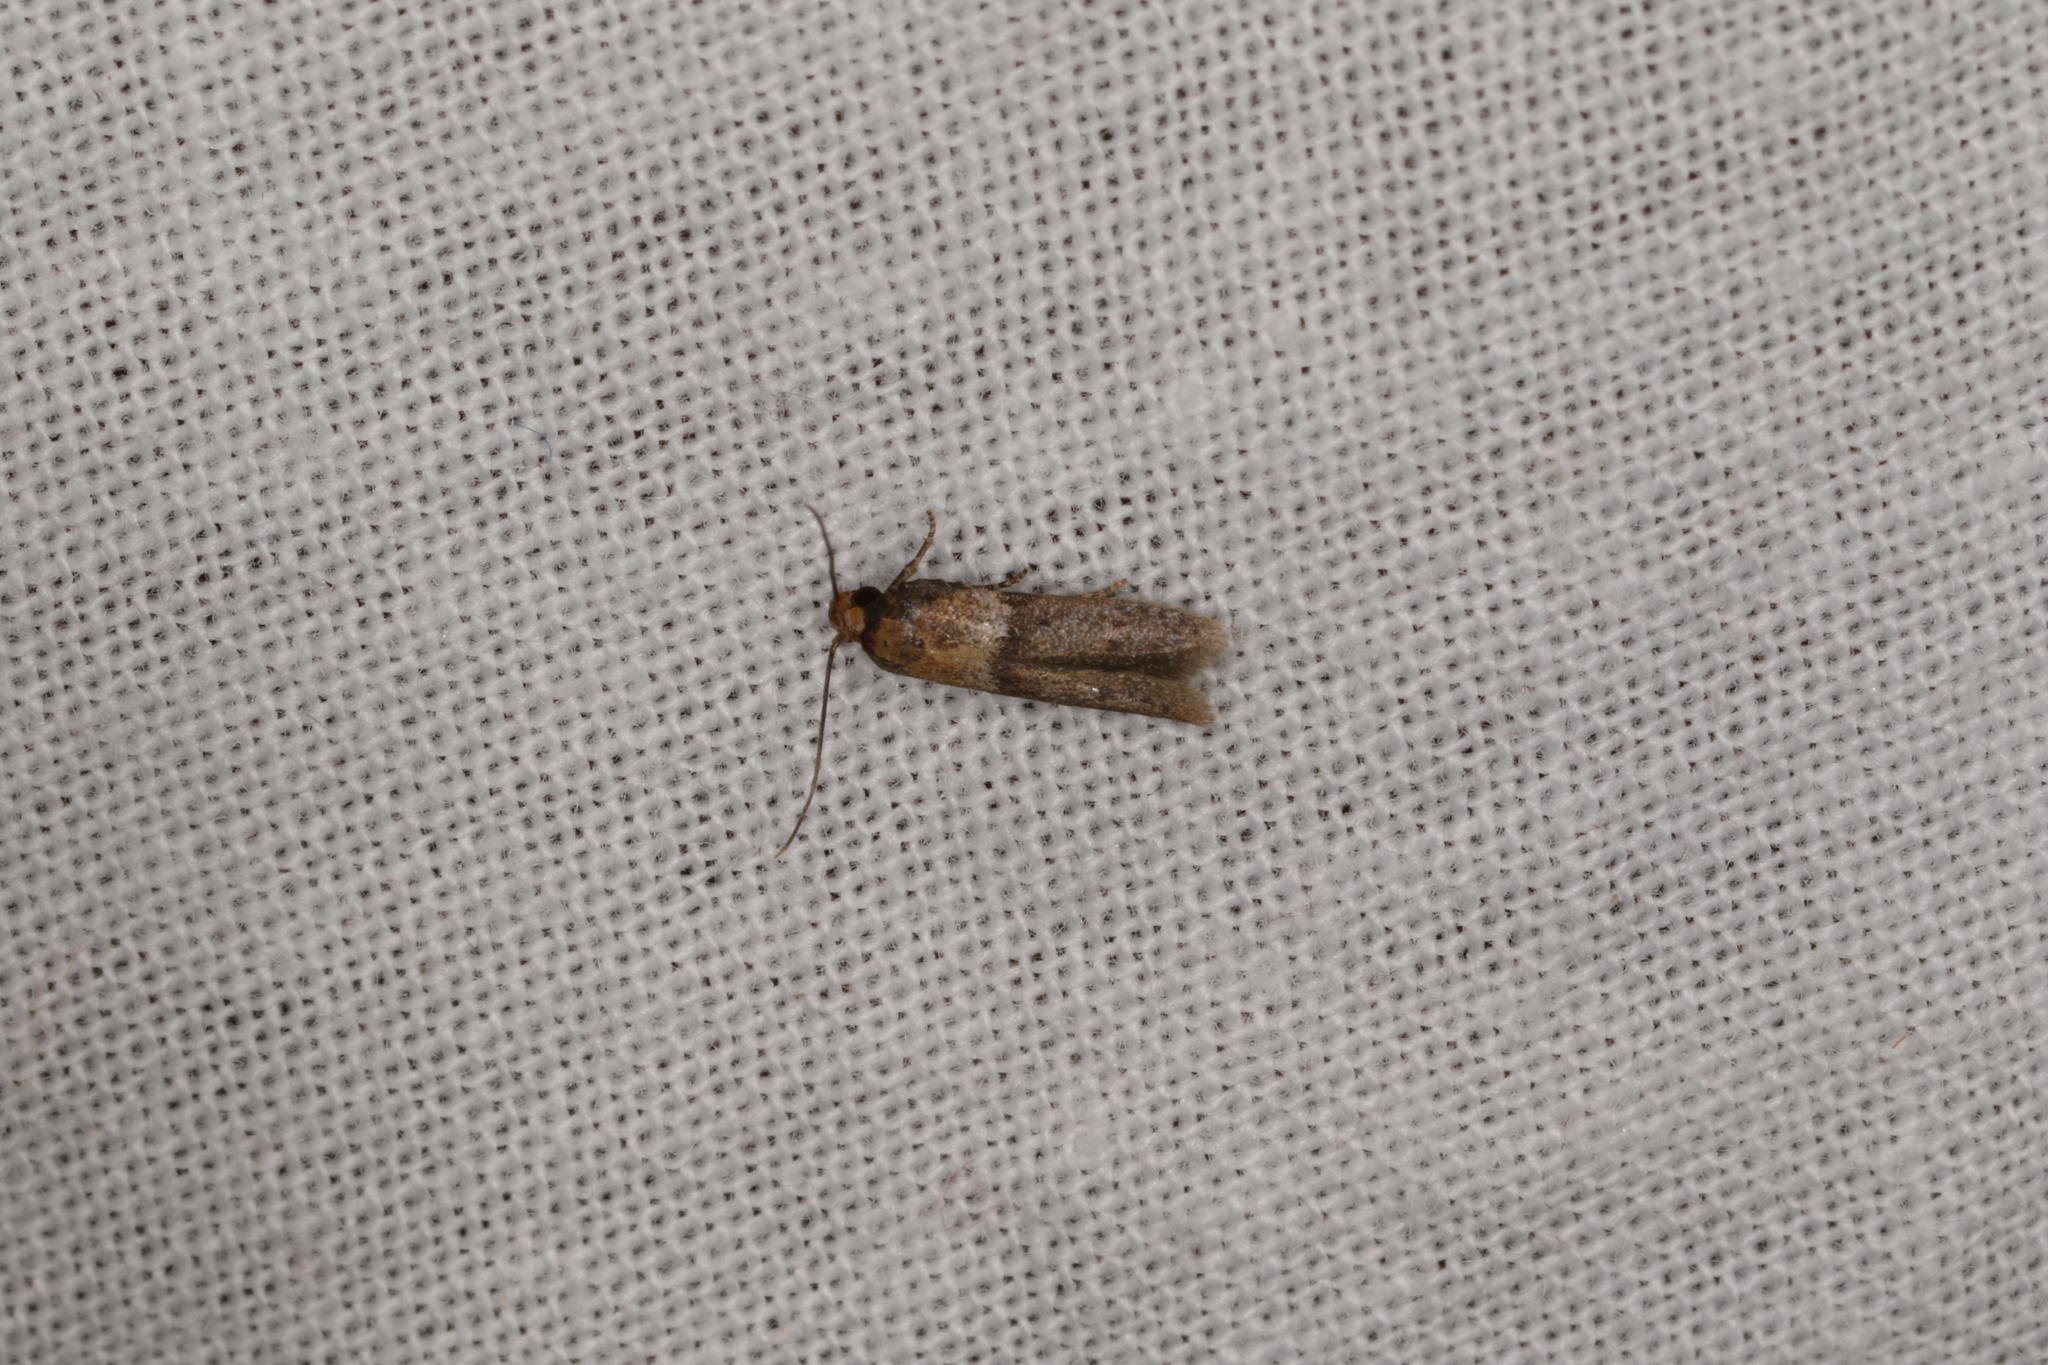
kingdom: Animalia
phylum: Arthropoda
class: Insecta
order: Lepidoptera
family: Blastobasidae
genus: Blastobasis
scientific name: Blastobasis scotia
